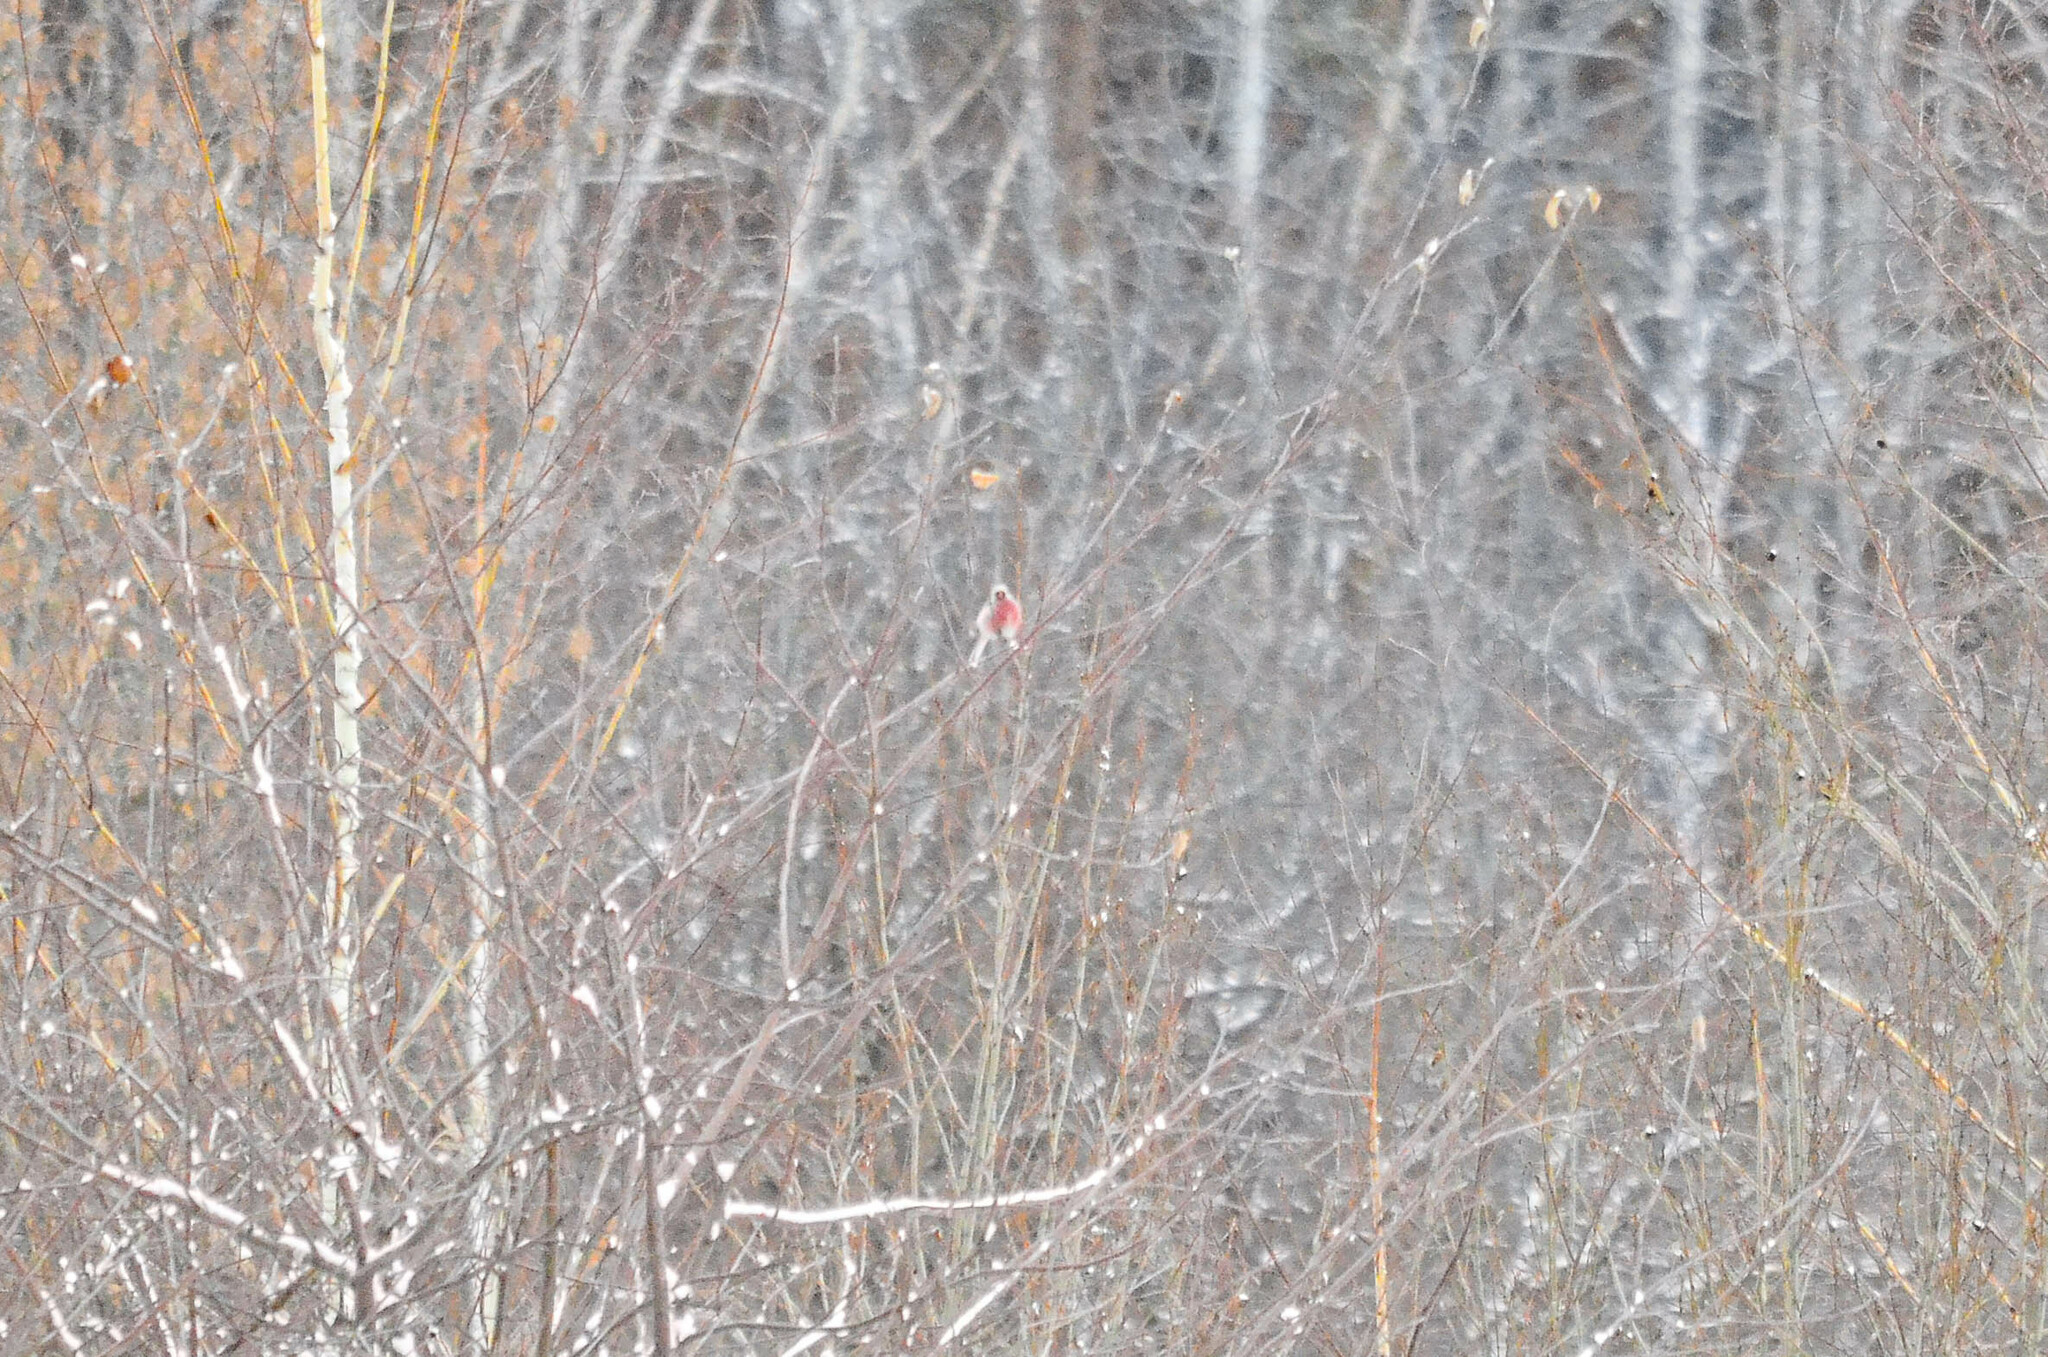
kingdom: Animalia
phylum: Chordata
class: Aves
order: Passeriformes
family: Fringillidae
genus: Carpodacus
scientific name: Carpodacus sibiricus
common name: Long-tailed rosefinch
